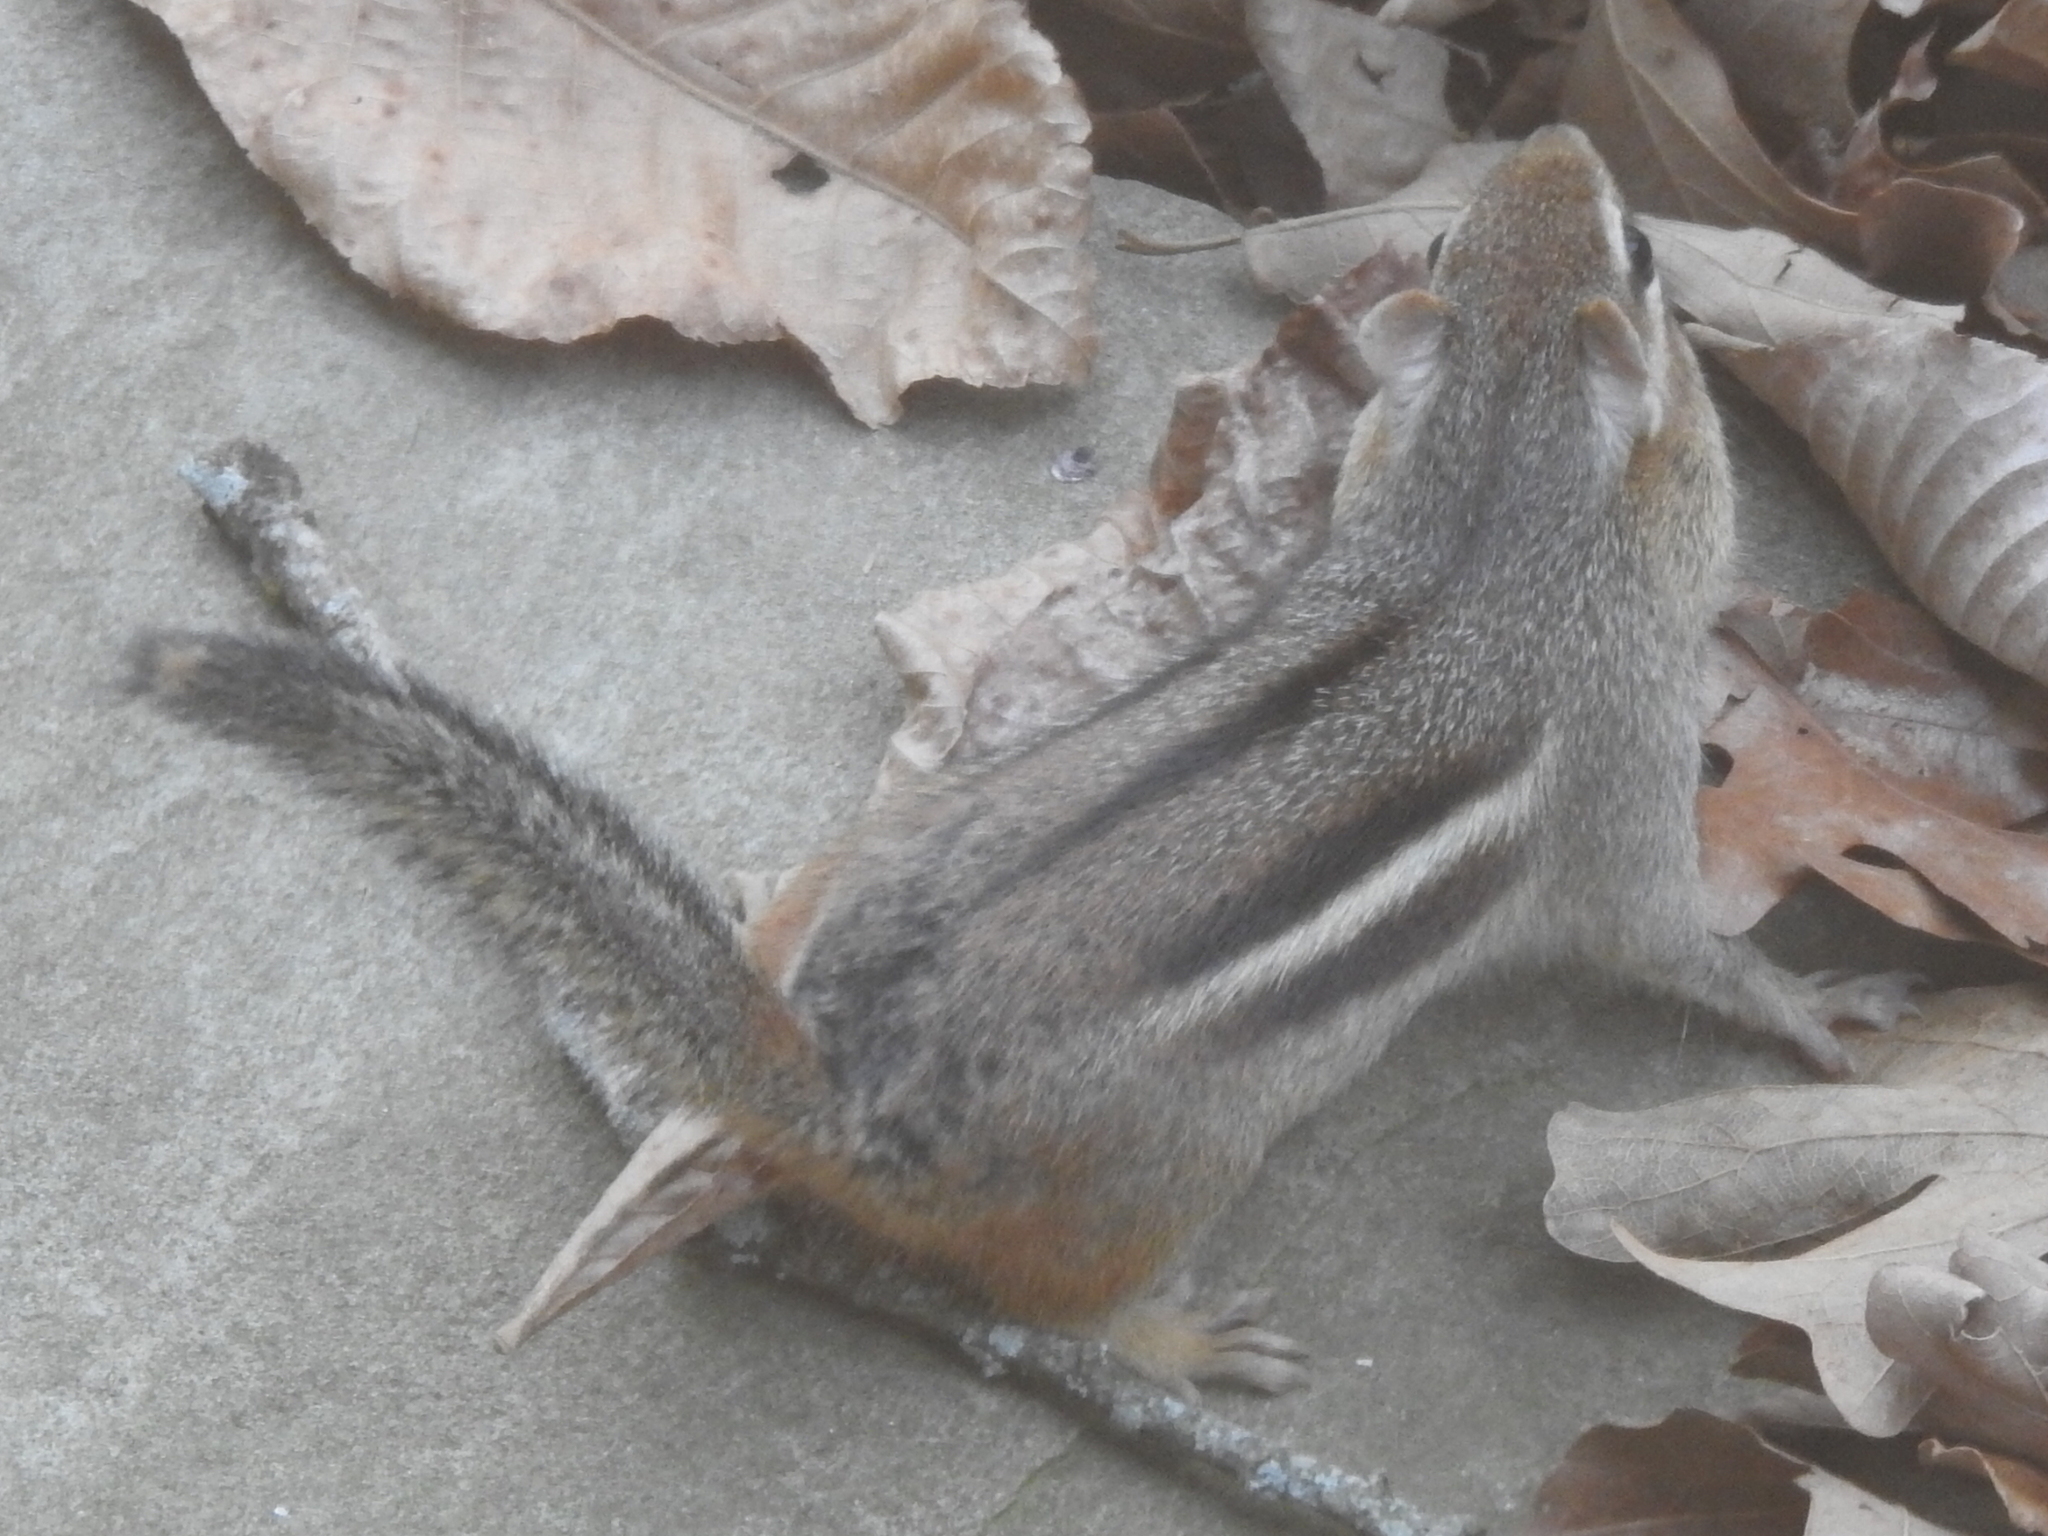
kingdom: Animalia
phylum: Chordata
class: Mammalia
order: Rodentia
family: Sciuridae
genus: Tamias
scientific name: Tamias striatus
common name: Eastern chipmunk
